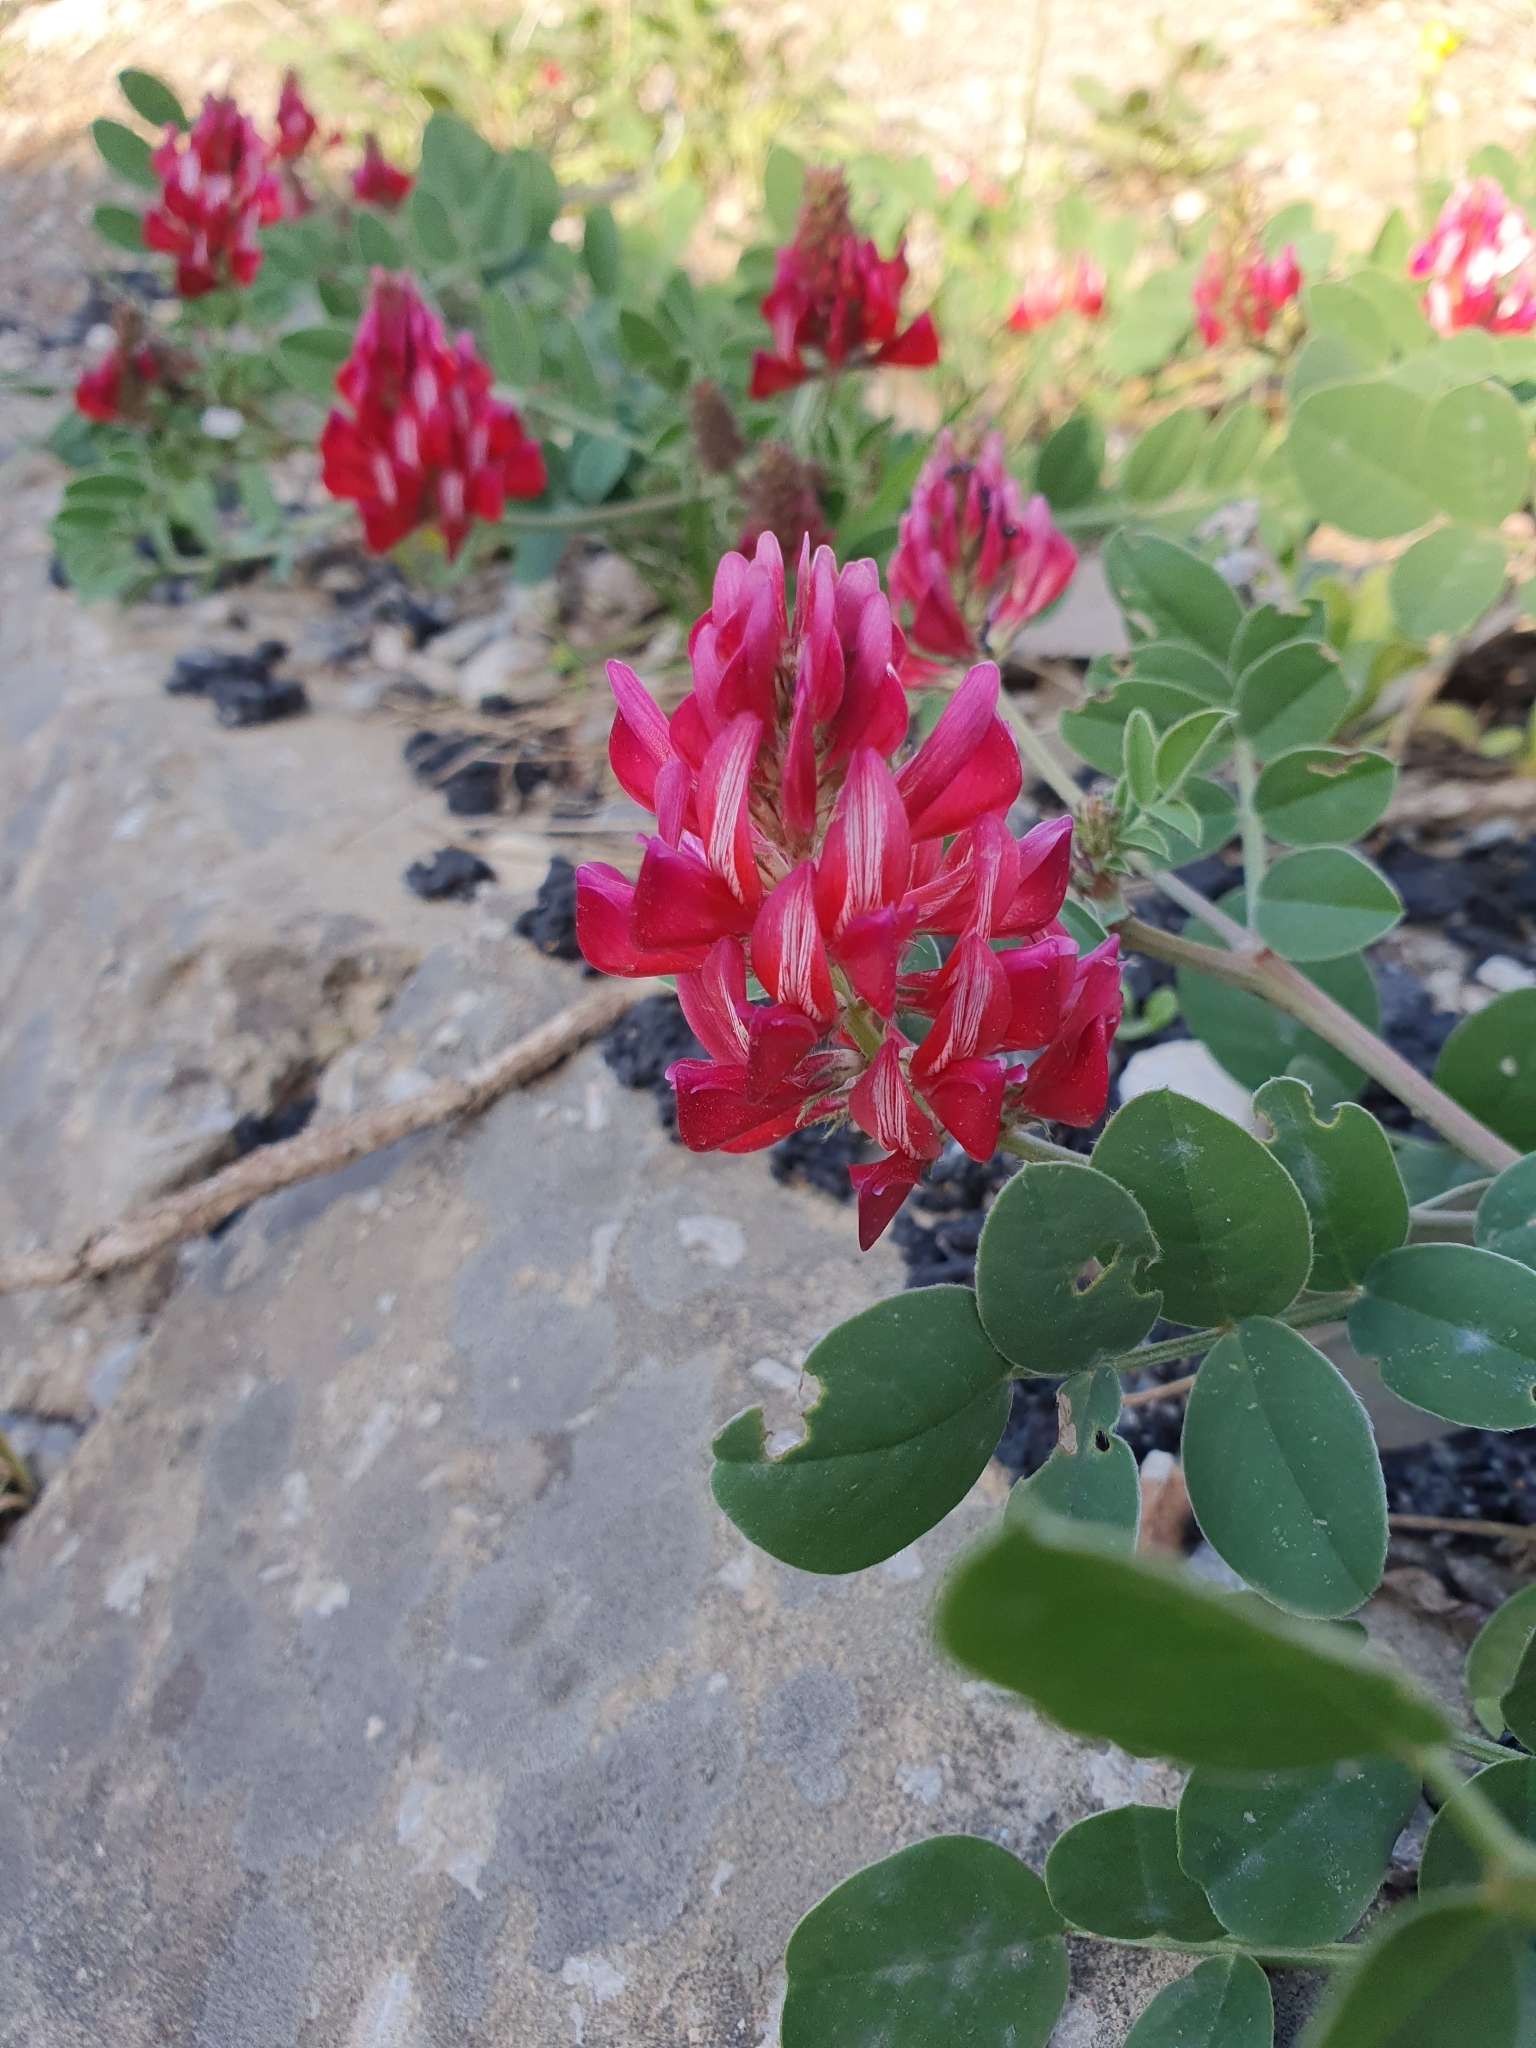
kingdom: Plantae
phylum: Tracheophyta
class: Magnoliopsida
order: Fabales
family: Fabaceae
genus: Sulla
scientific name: Sulla coronaria
